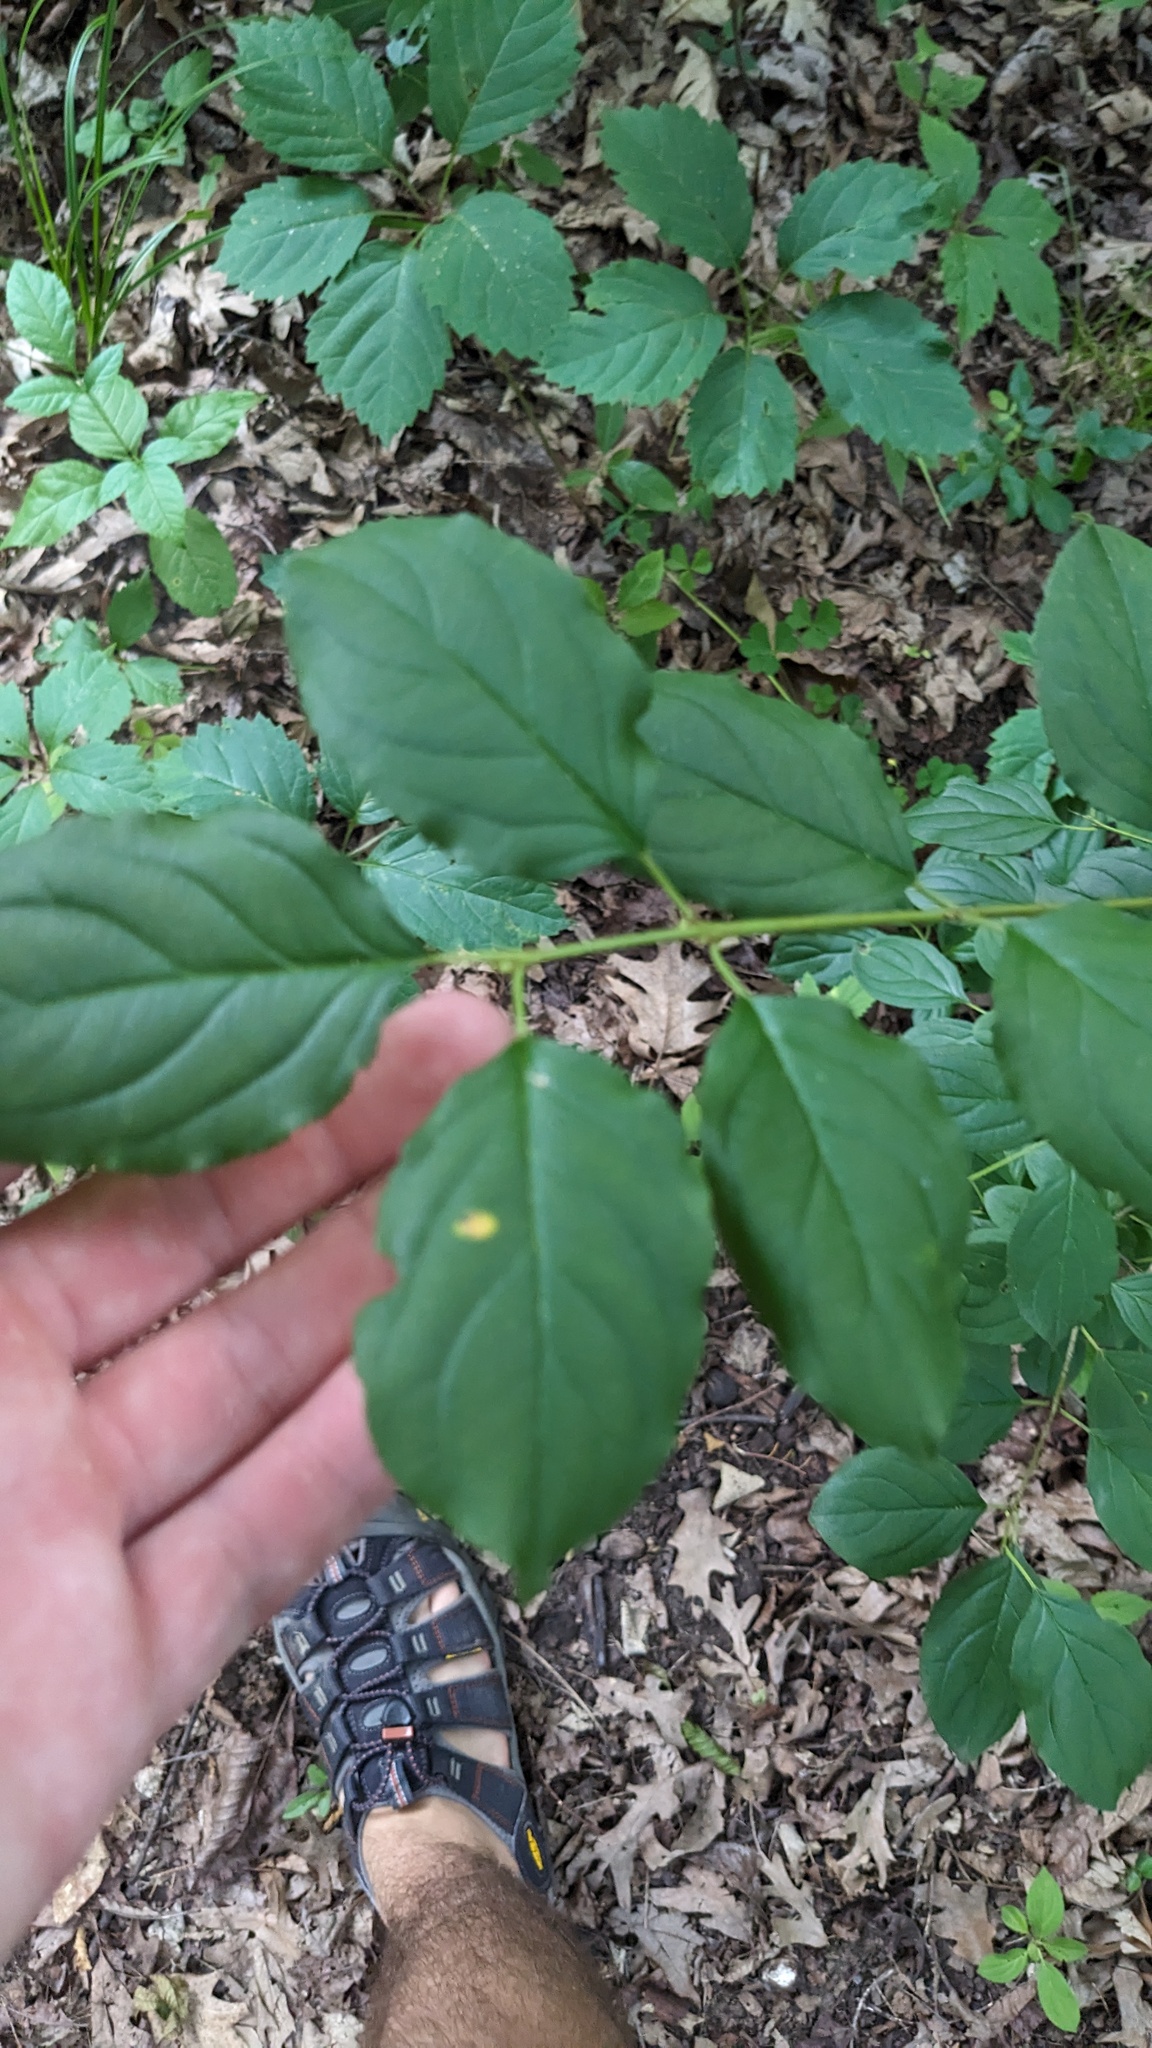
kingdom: Plantae
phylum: Tracheophyta
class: Magnoliopsida
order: Rosales
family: Rhamnaceae
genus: Rhamnus
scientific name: Rhamnus cathartica
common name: Common buckthorn
